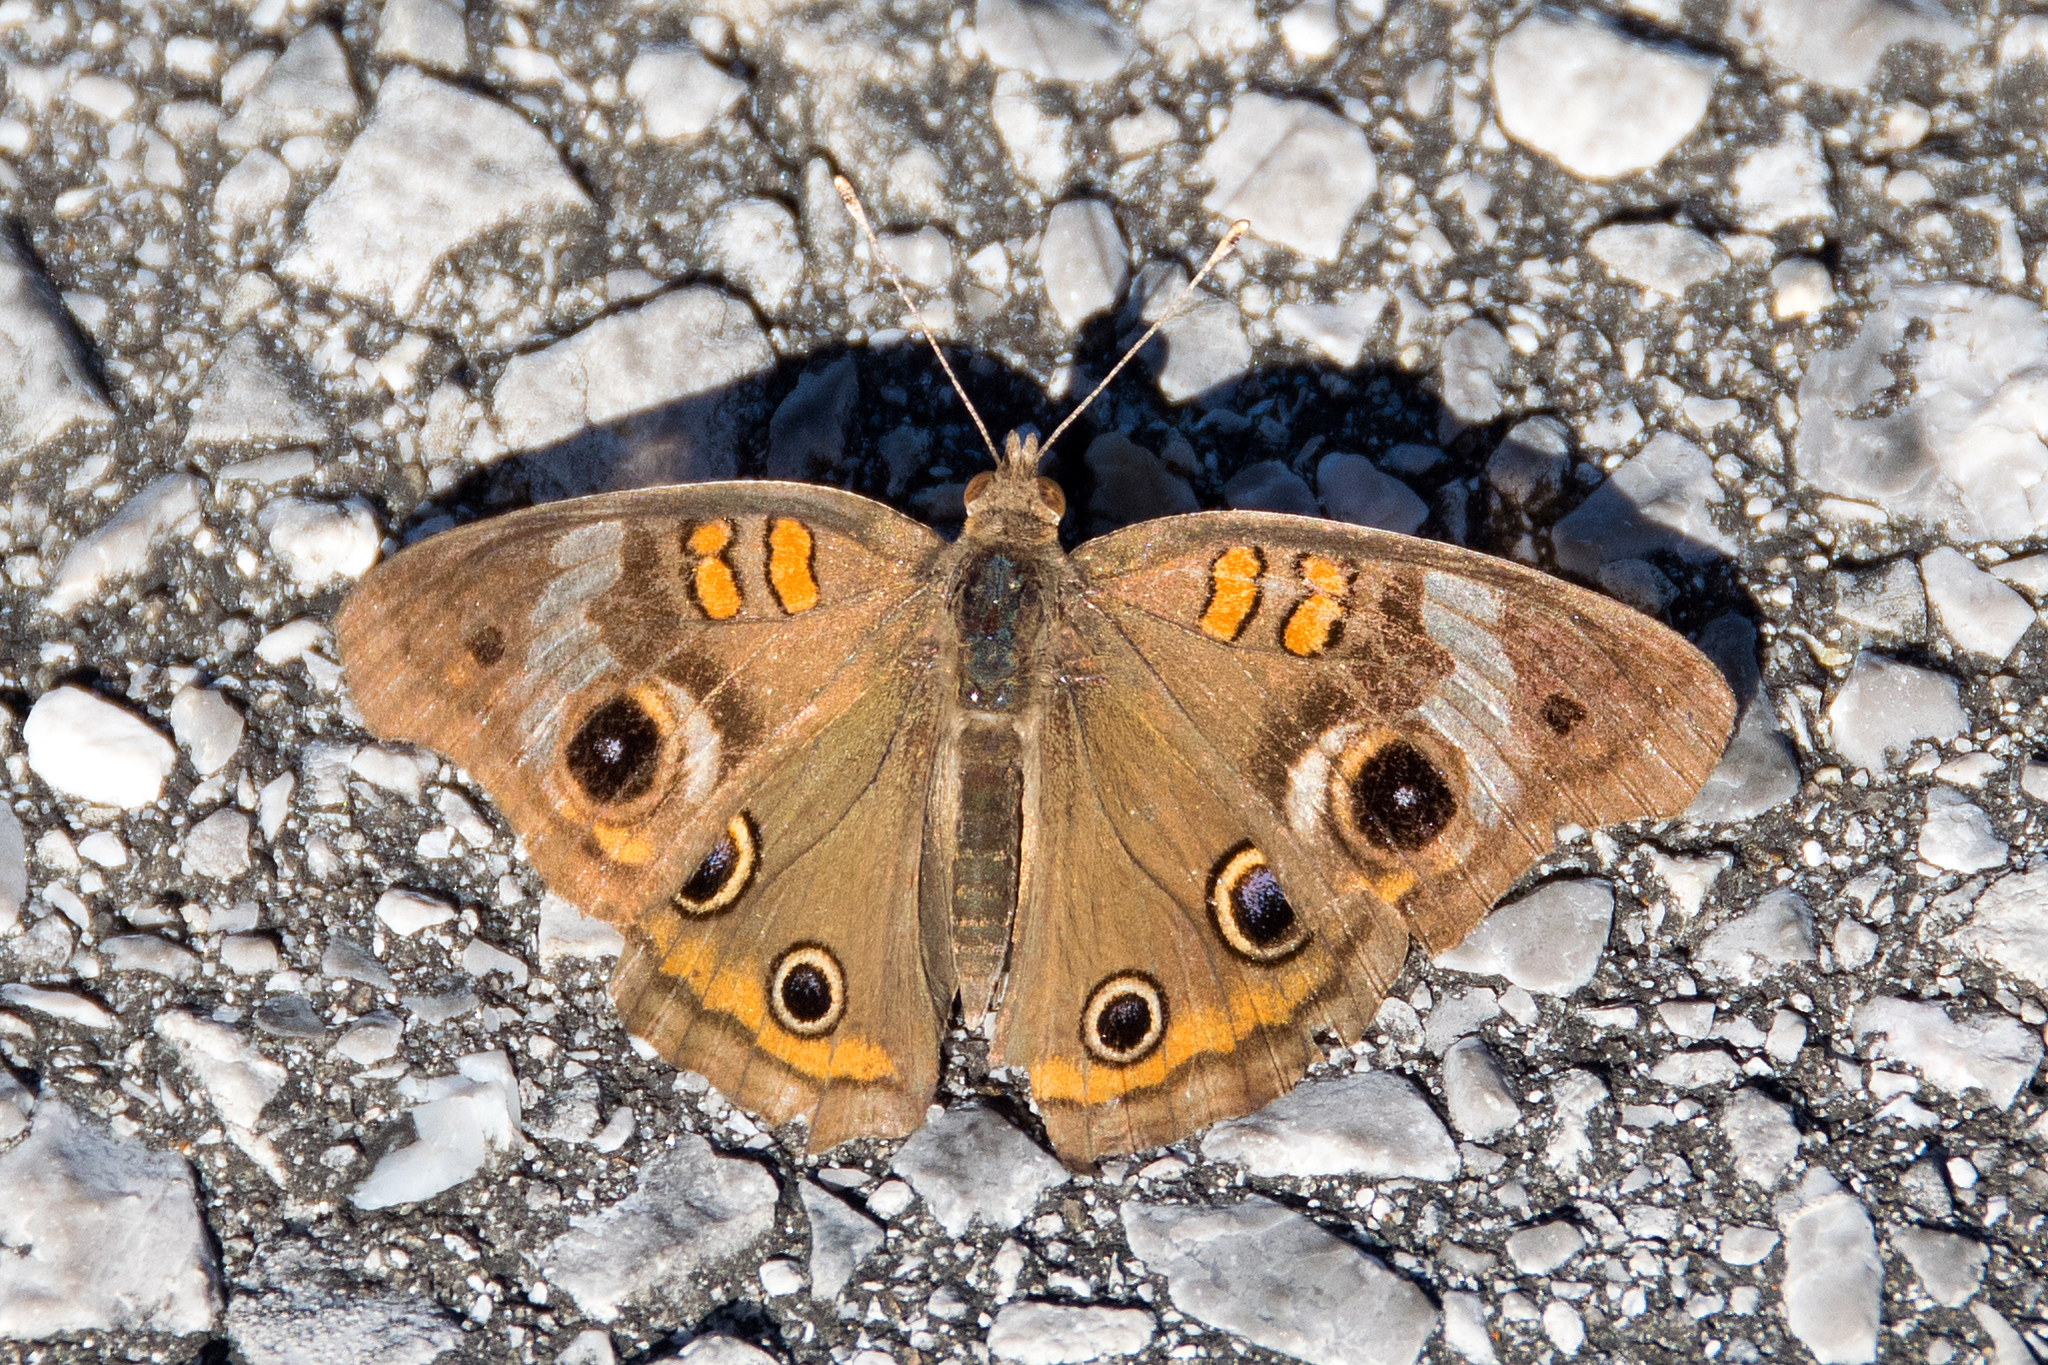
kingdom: Animalia
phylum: Arthropoda
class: Insecta
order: Lepidoptera
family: Nymphalidae
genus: Junonia
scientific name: Junonia coenia
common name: Common buckeye
